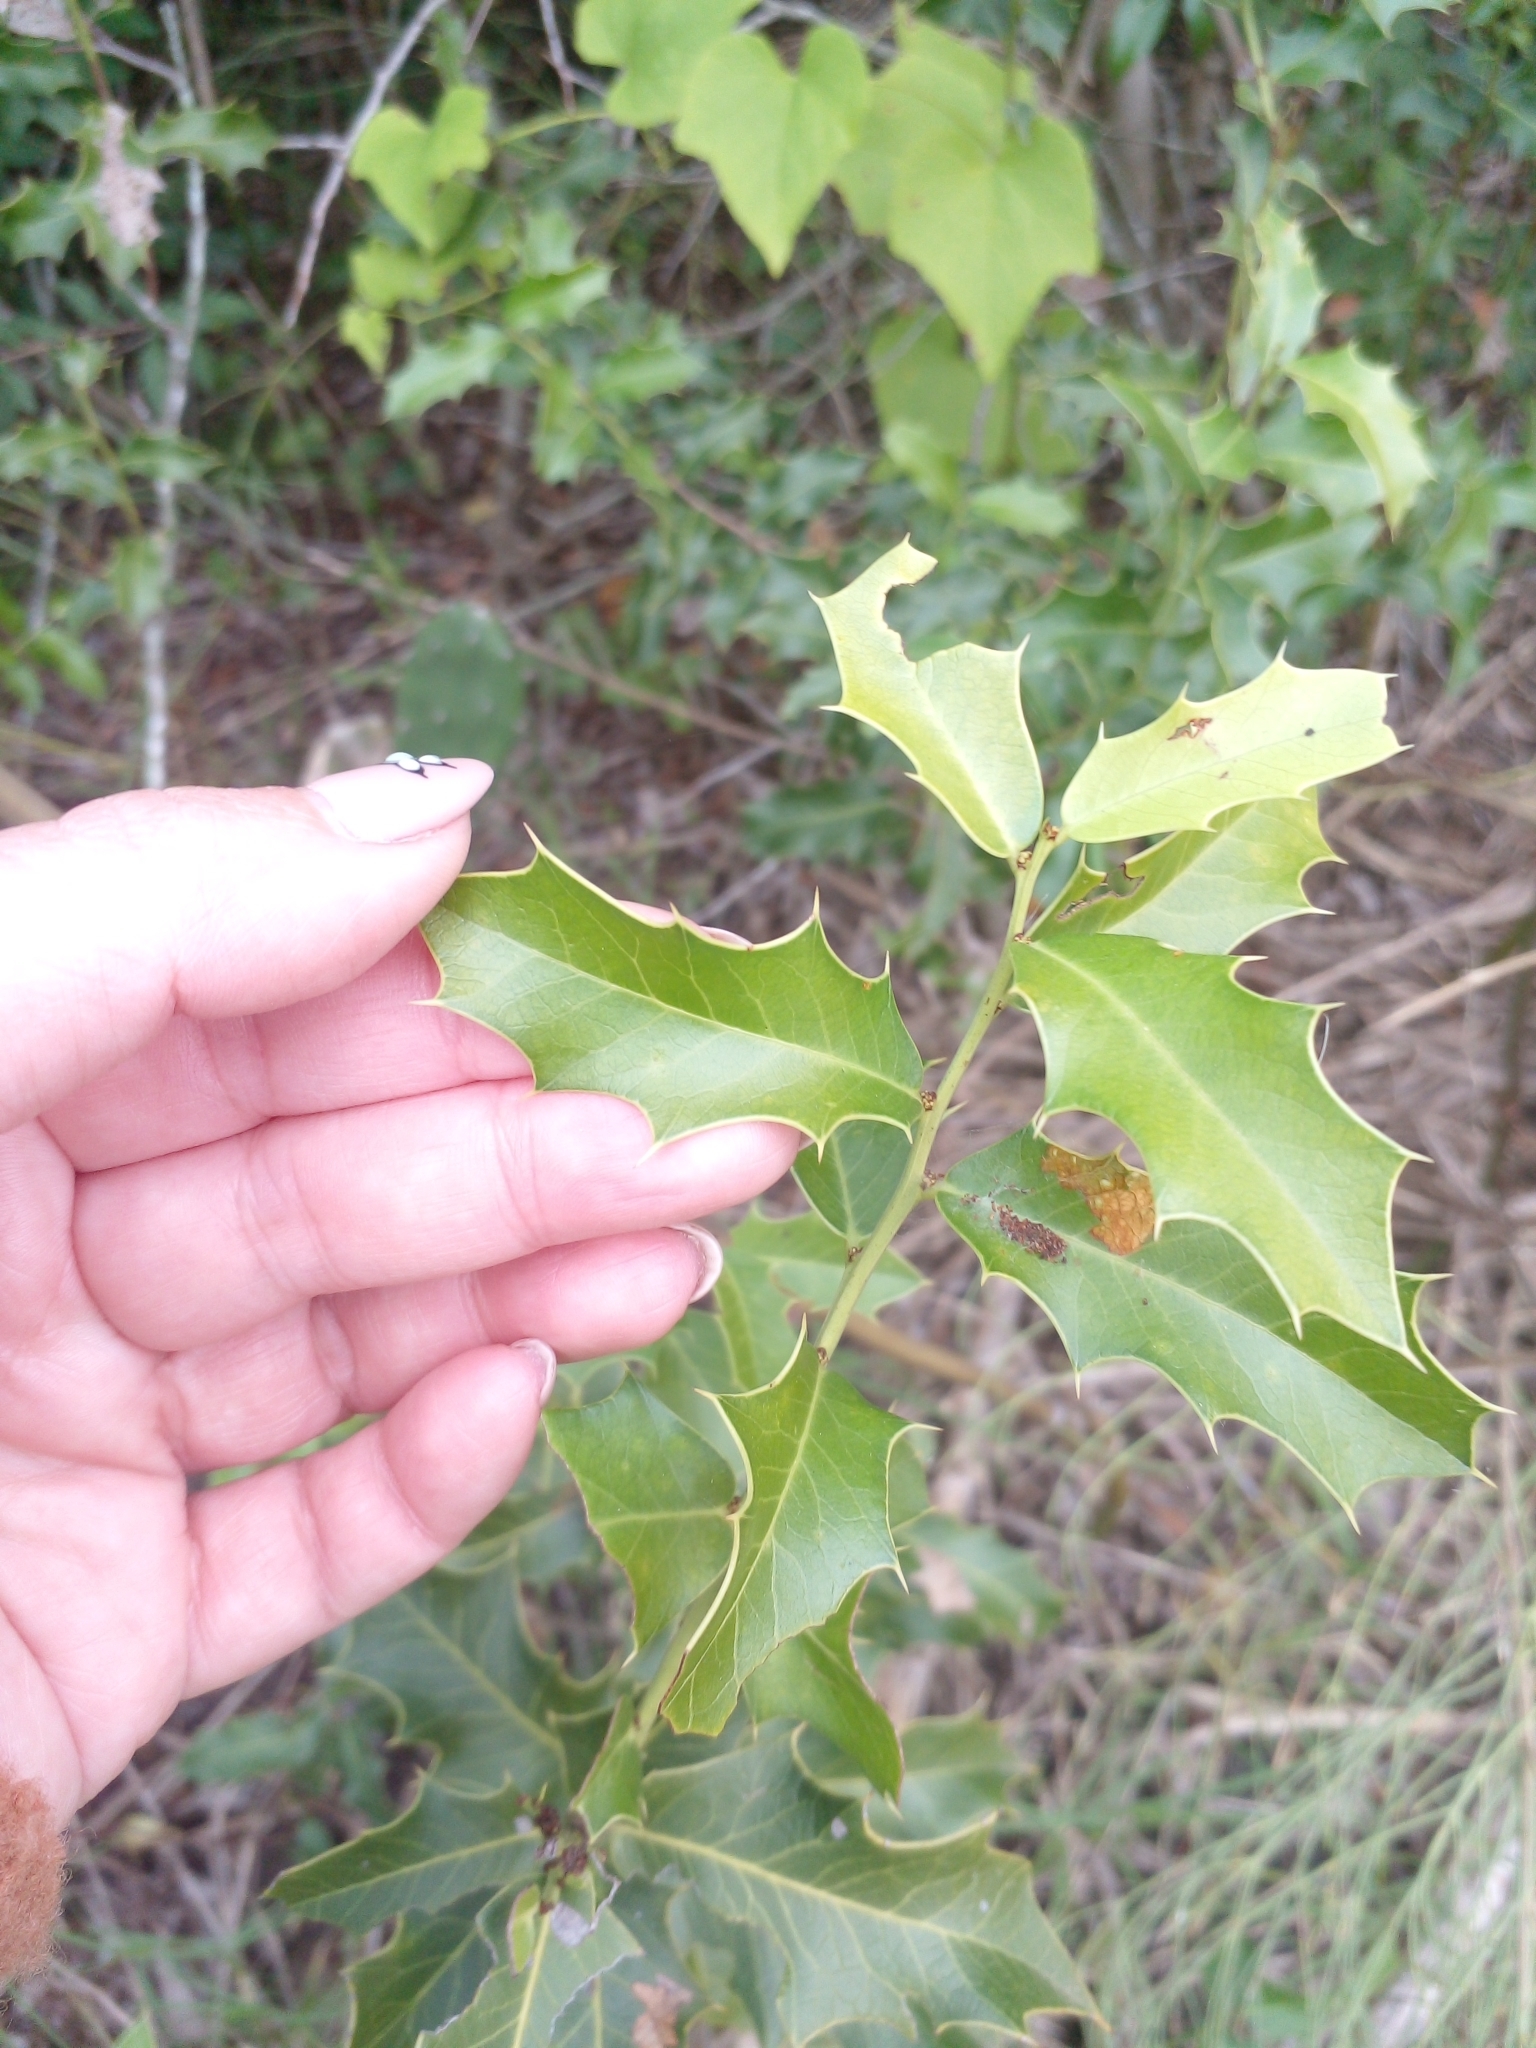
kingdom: Plantae
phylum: Tracheophyta
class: Magnoliopsida
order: Celastrales
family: Celastraceae
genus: Monteverdia
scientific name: Monteverdia
